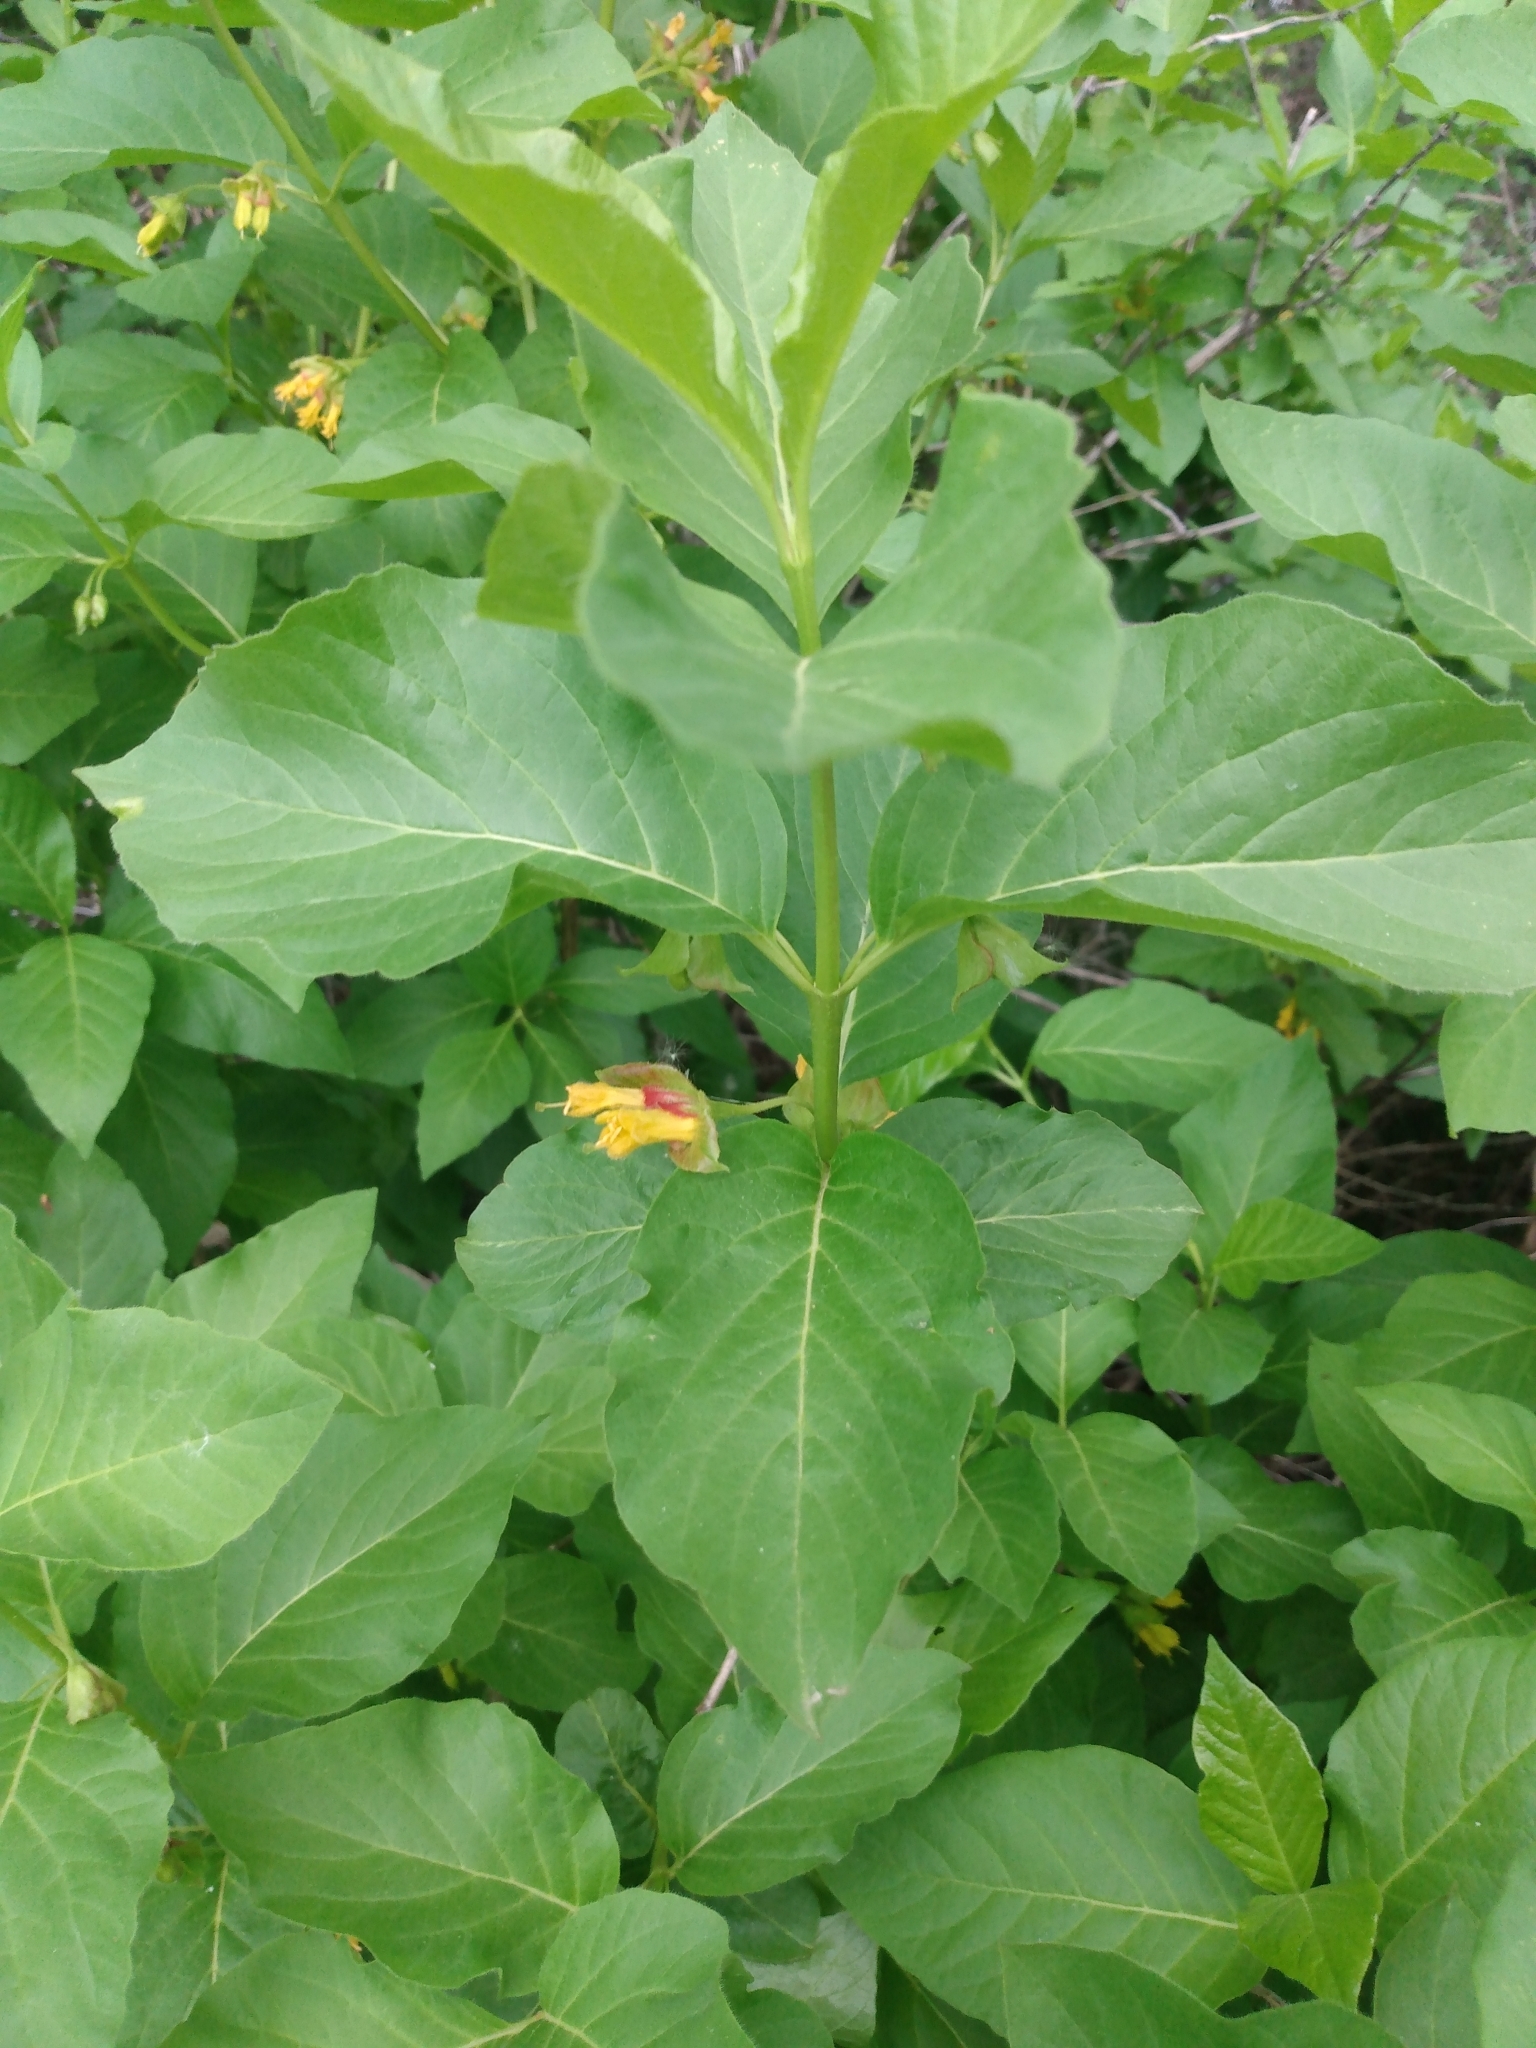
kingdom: Plantae
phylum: Tracheophyta
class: Magnoliopsida
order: Dipsacales
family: Caprifoliaceae
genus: Lonicera
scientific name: Lonicera involucrata
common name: Californian honeysuckle
